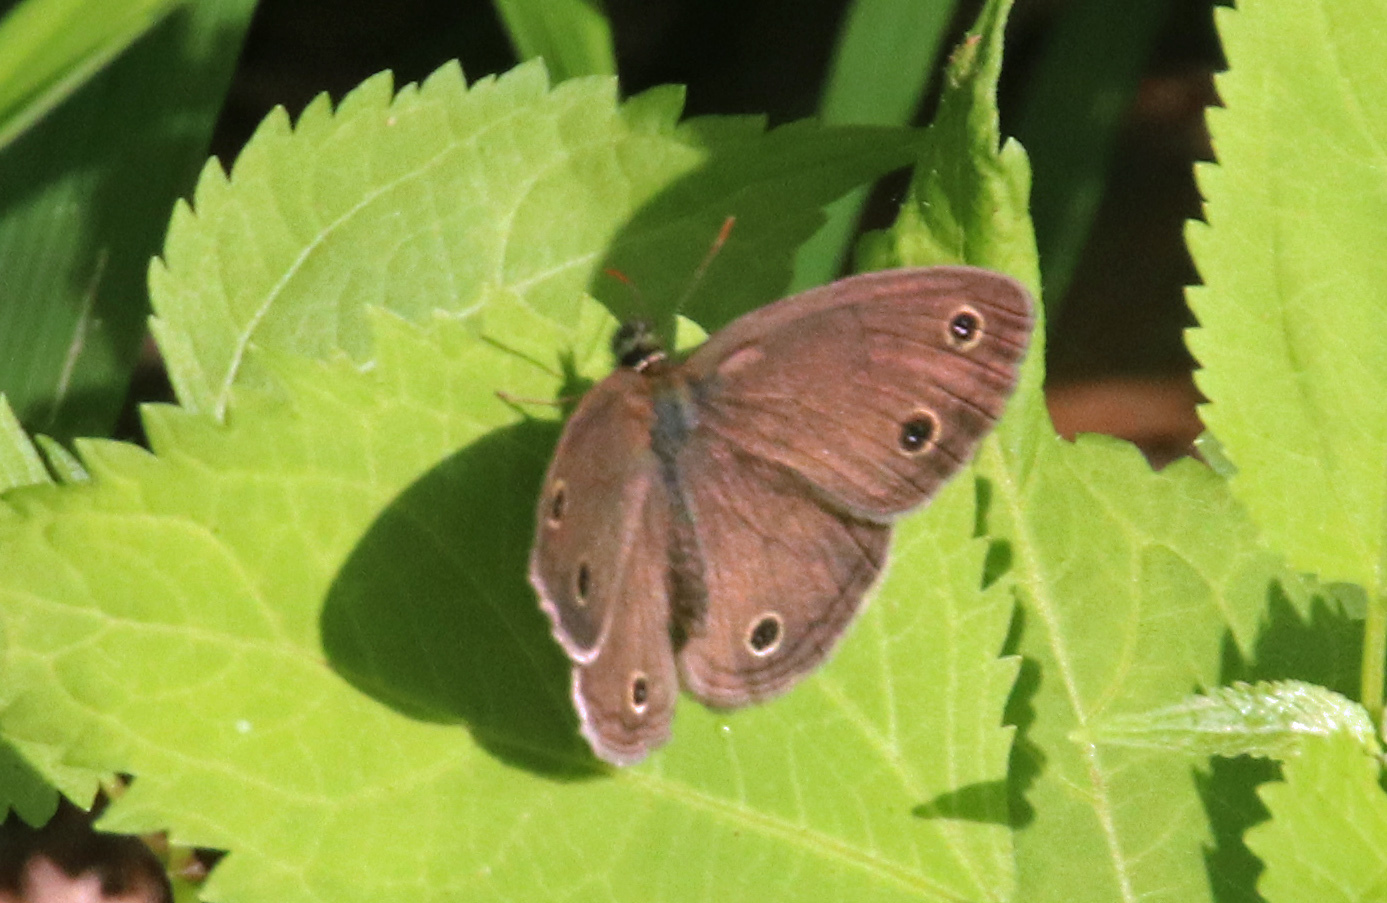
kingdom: Animalia
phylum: Arthropoda
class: Insecta
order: Lepidoptera
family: Nymphalidae
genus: Euptychia
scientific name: Euptychia cymela
